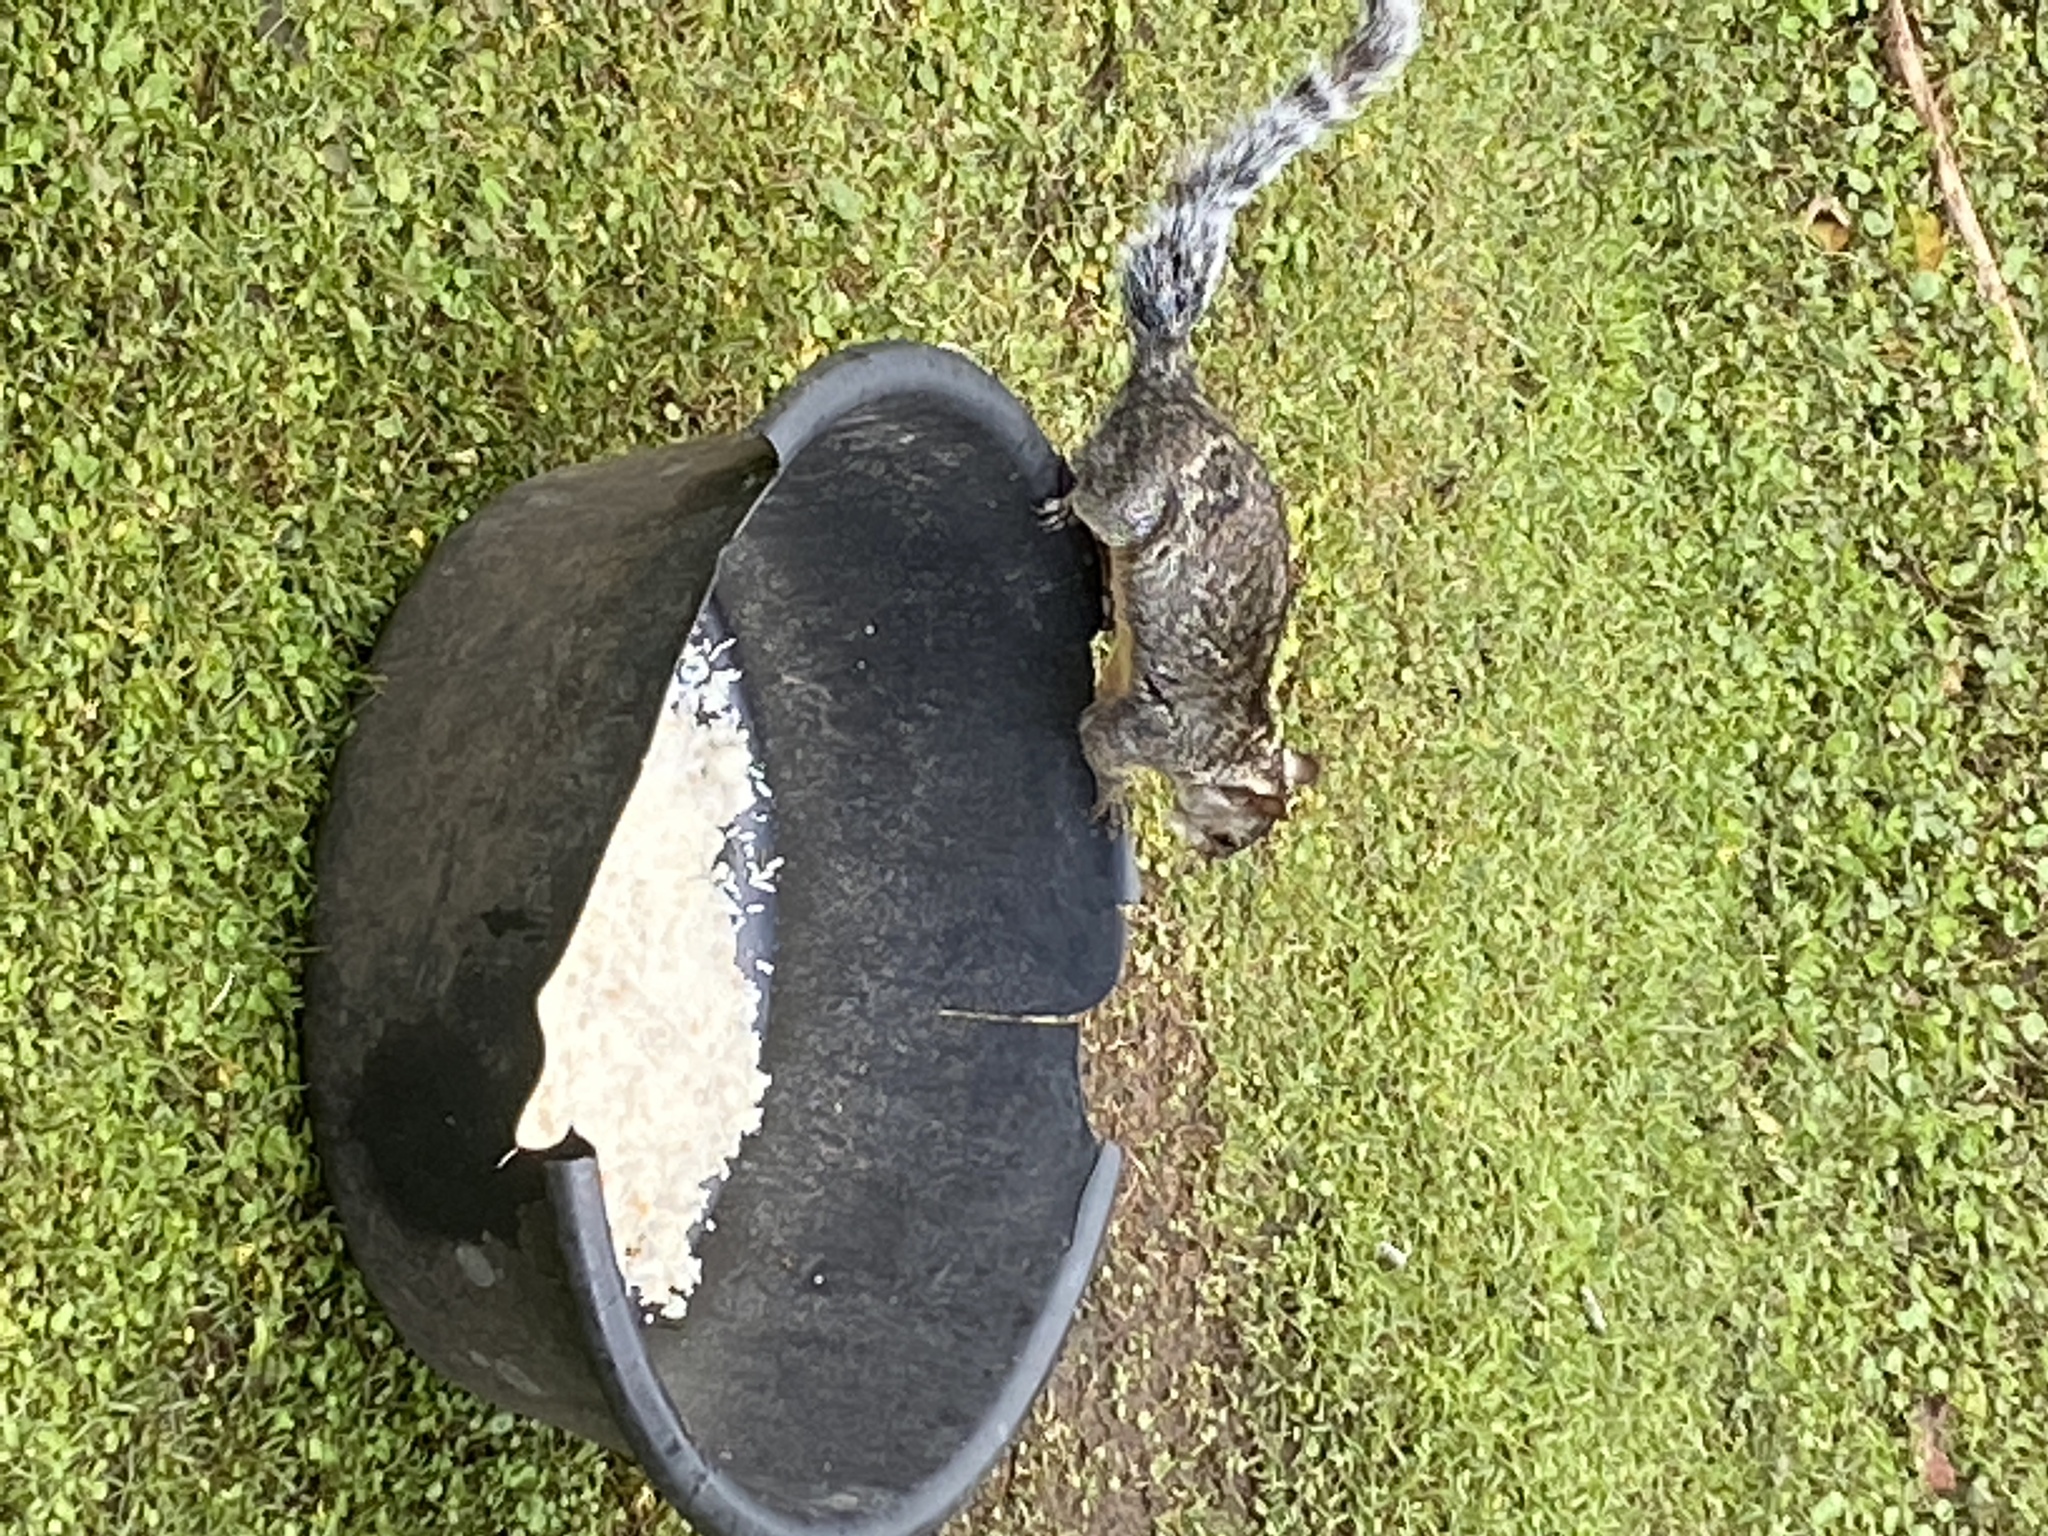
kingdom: Animalia
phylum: Chordata
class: Mammalia
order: Rodentia
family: Sciuridae
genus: Sciurus
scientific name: Sciurus variegatoides
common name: Variegated squirrel
